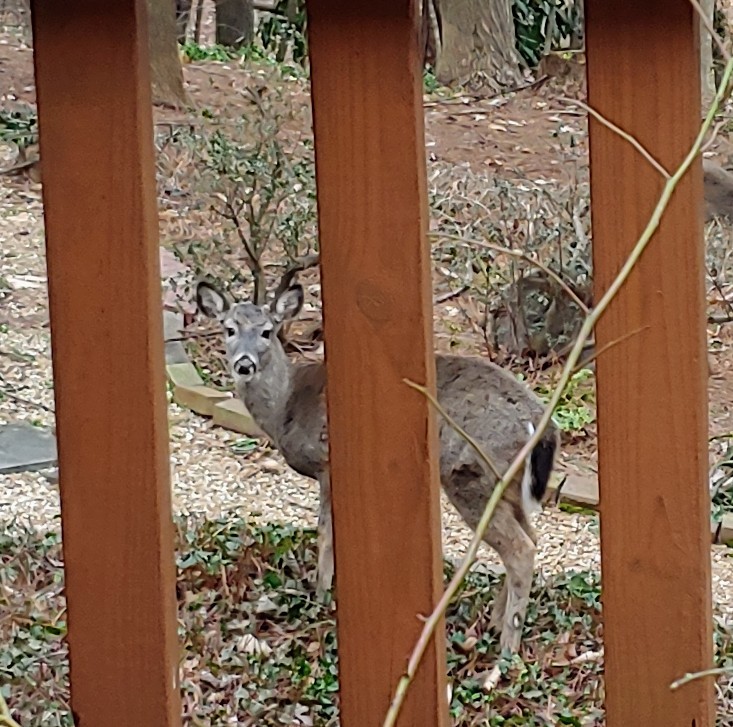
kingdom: Animalia
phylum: Chordata
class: Mammalia
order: Artiodactyla
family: Cervidae
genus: Odocoileus
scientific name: Odocoileus virginianus
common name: White-tailed deer
